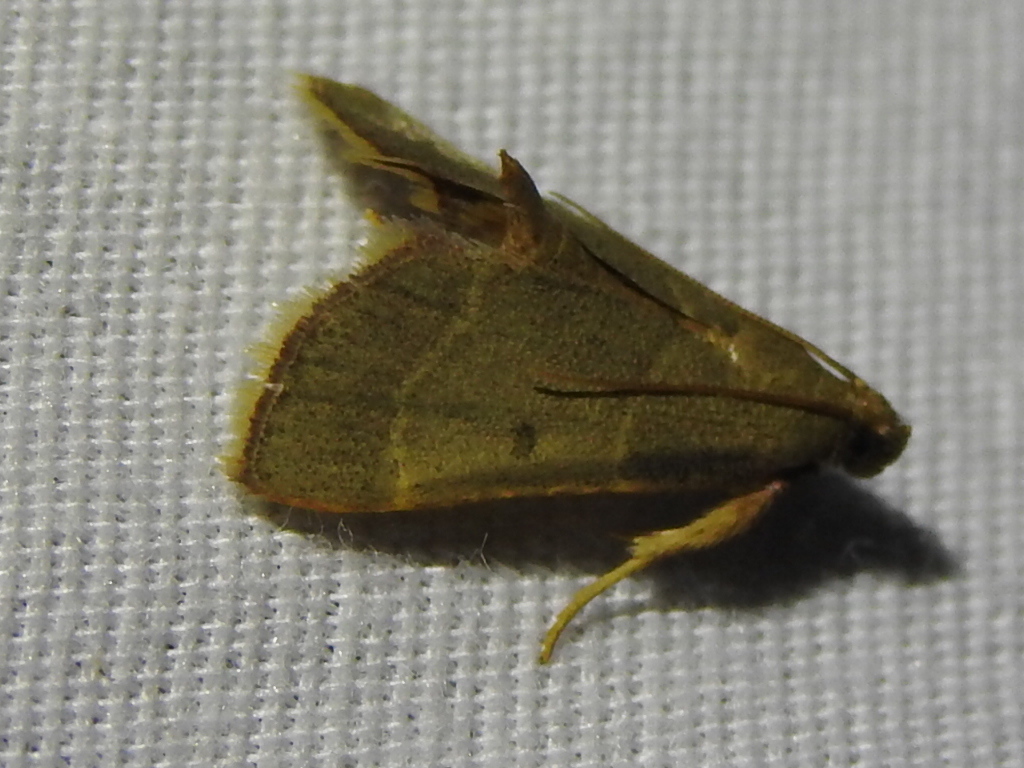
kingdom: Animalia
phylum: Arthropoda
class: Insecta
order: Lepidoptera
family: Pyralidae
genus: Hypsopygia
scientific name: Hypsopygia nostralis
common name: Southern hayworm moth
